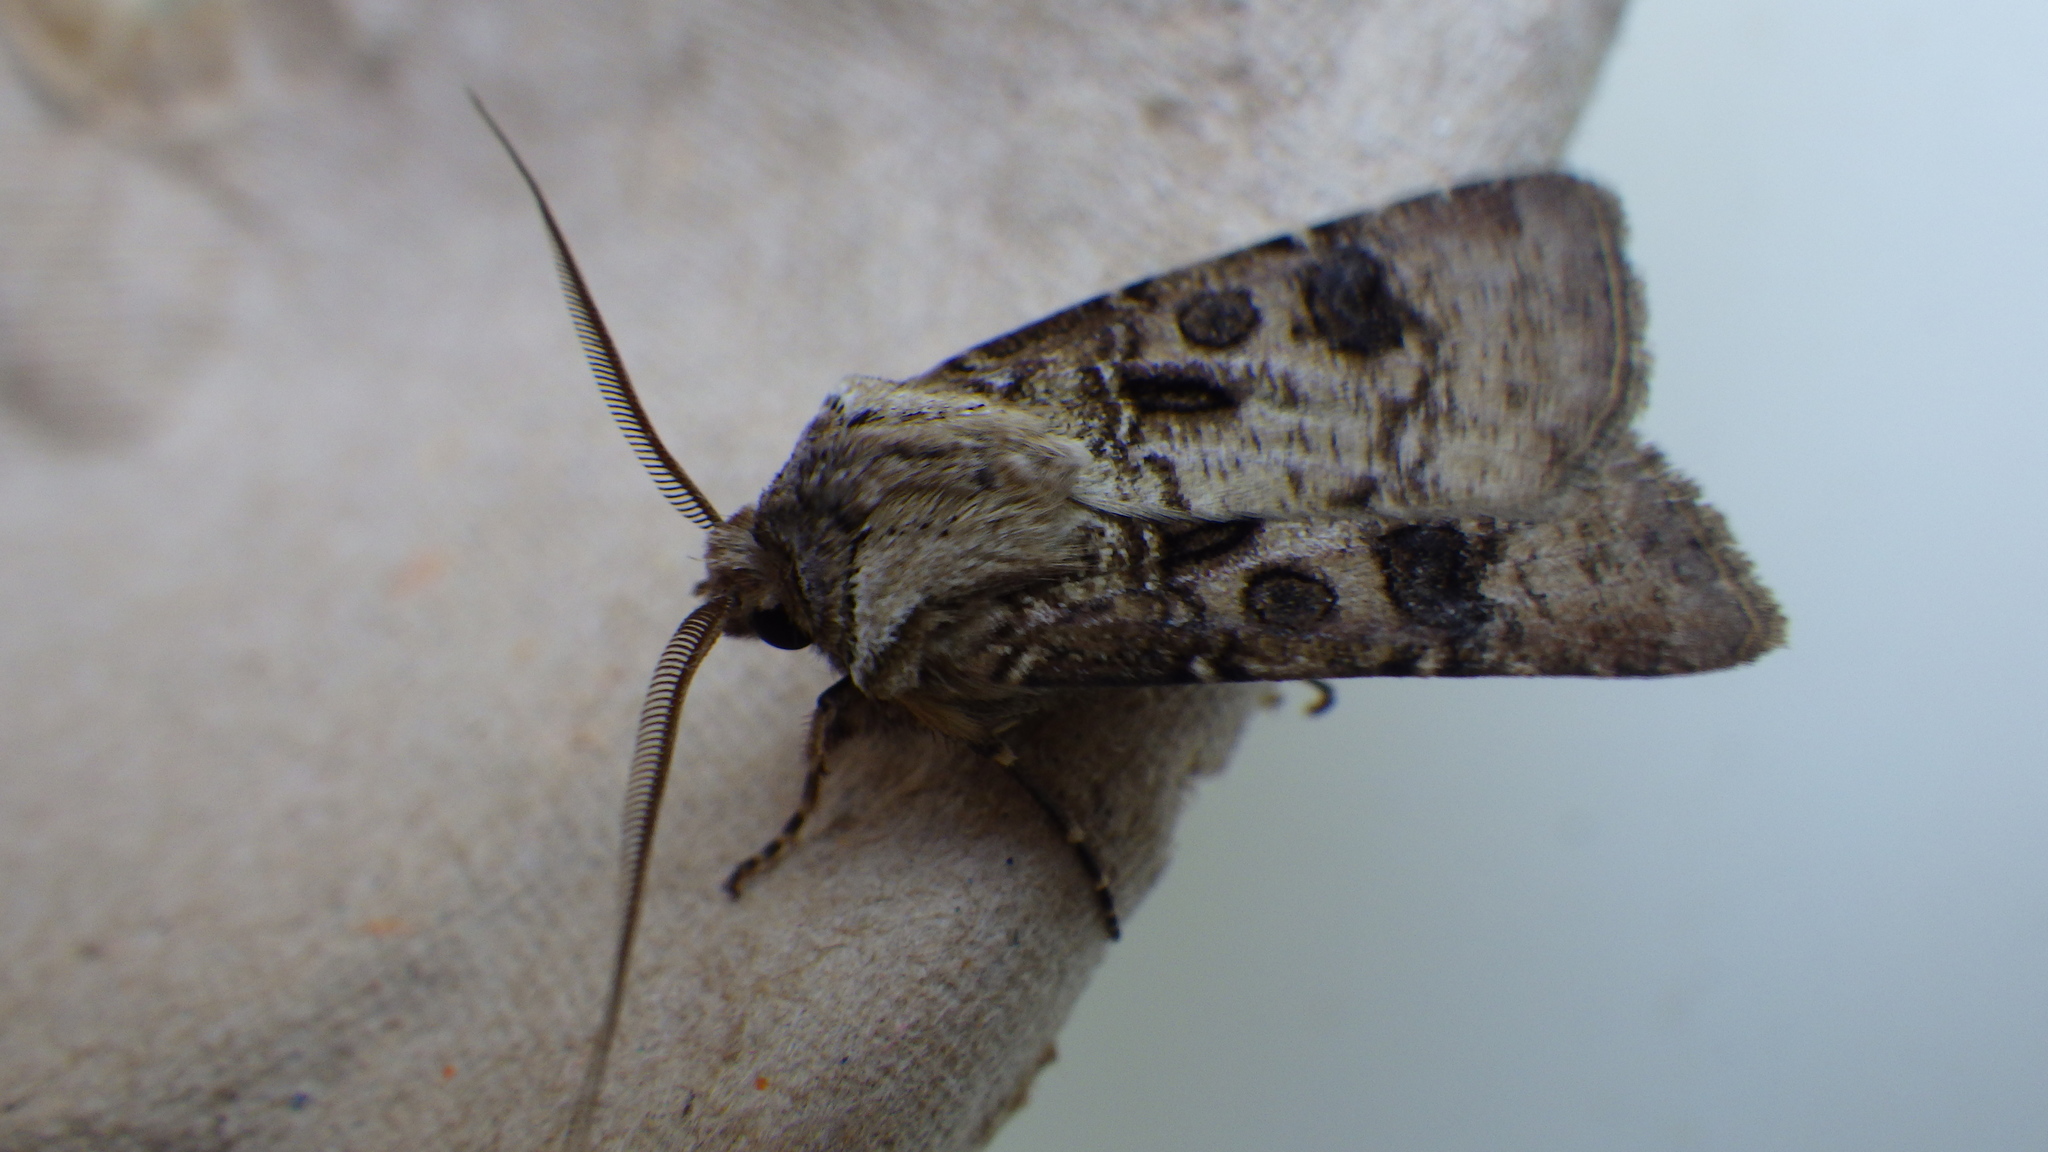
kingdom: Animalia
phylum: Arthropoda
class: Insecta
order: Lepidoptera
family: Noctuidae
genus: Agrotis
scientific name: Agrotis clavis
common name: Heart and club
